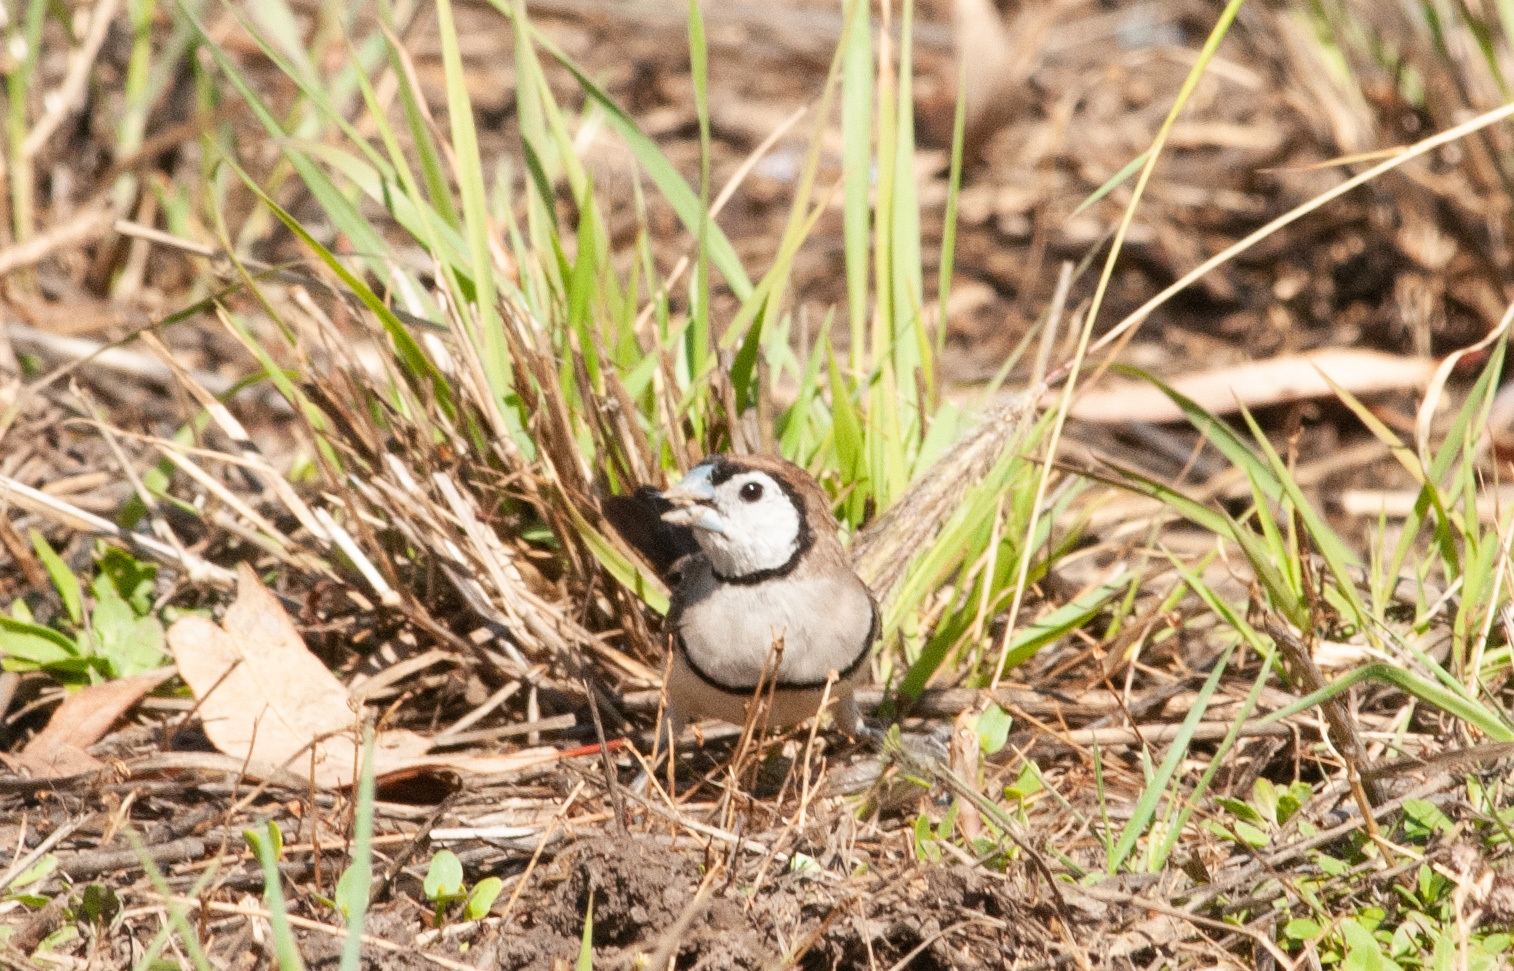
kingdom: Animalia
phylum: Chordata
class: Aves
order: Passeriformes
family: Estrildidae
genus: Taeniopygia
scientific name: Taeniopygia bichenovii
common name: Double-barred finch
